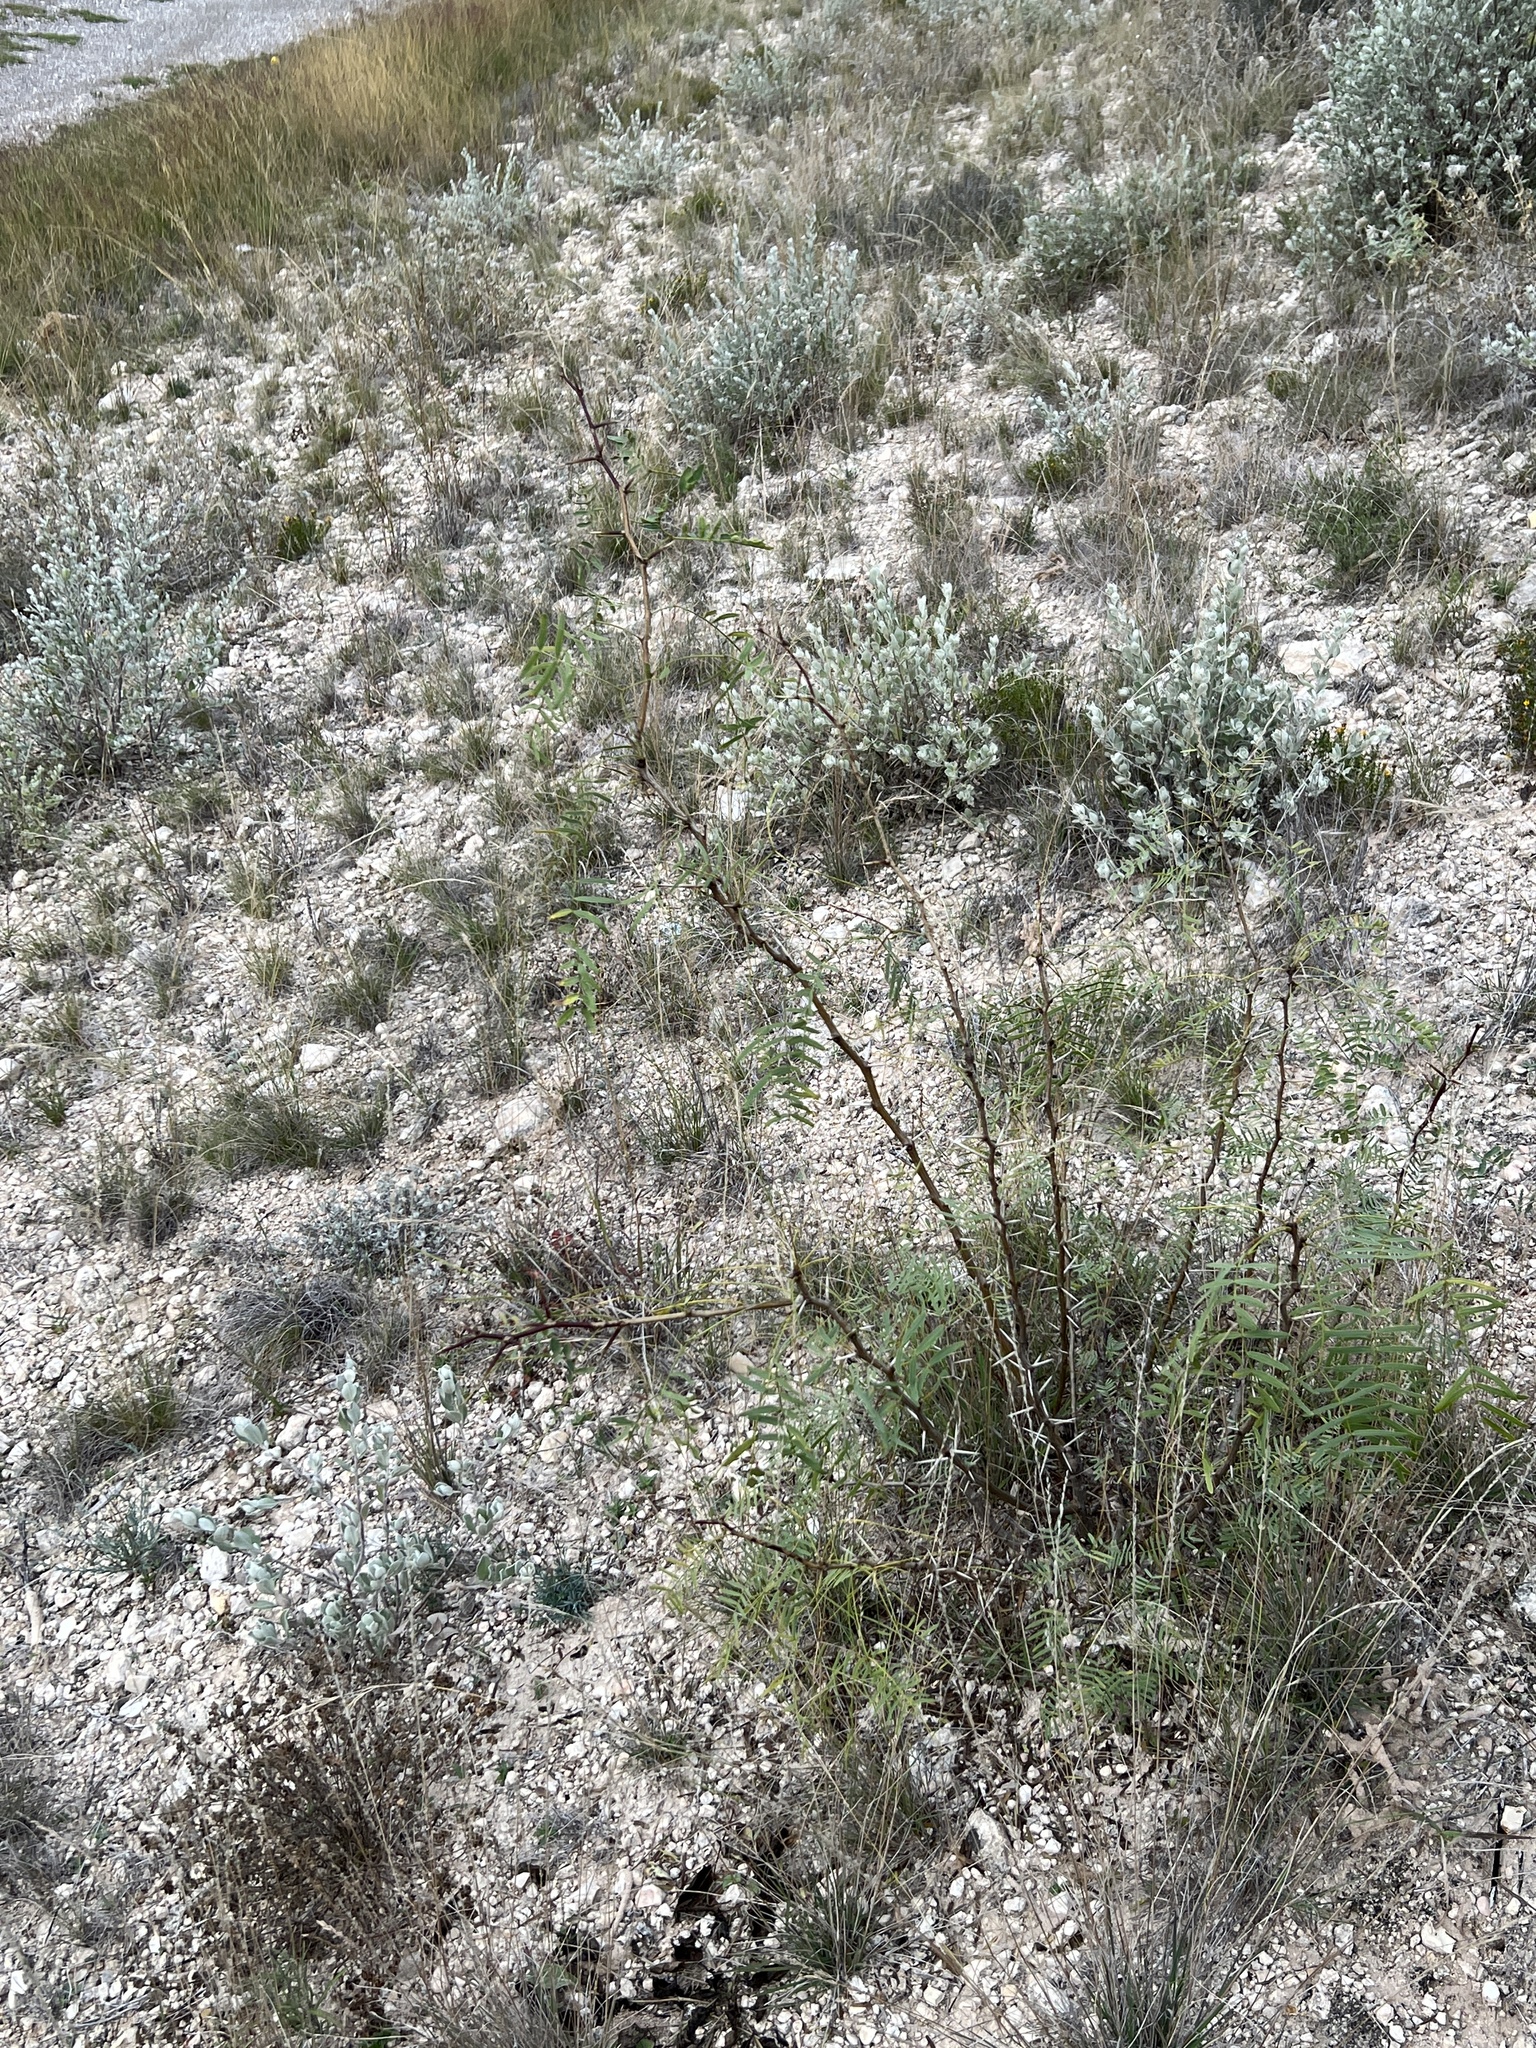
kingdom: Plantae
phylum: Tracheophyta
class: Magnoliopsida
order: Fabales
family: Fabaceae
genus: Prosopis
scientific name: Prosopis glandulosa
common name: Honey mesquite
